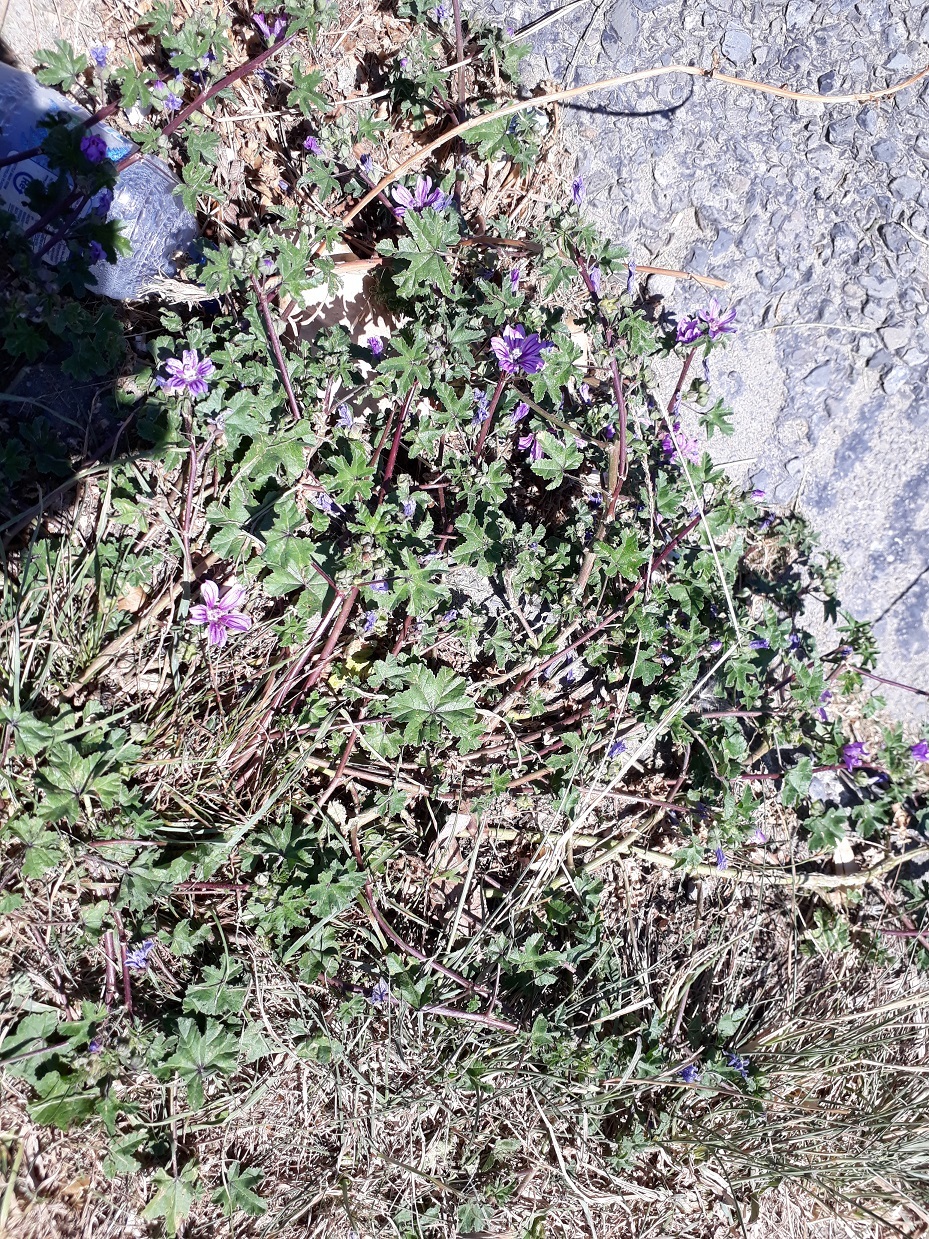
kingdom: Plantae
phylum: Tracheophyta
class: Magnoliopsida
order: Malvales
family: Malvaceae
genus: Malva
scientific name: Malva sylvestris
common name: Common mallow
